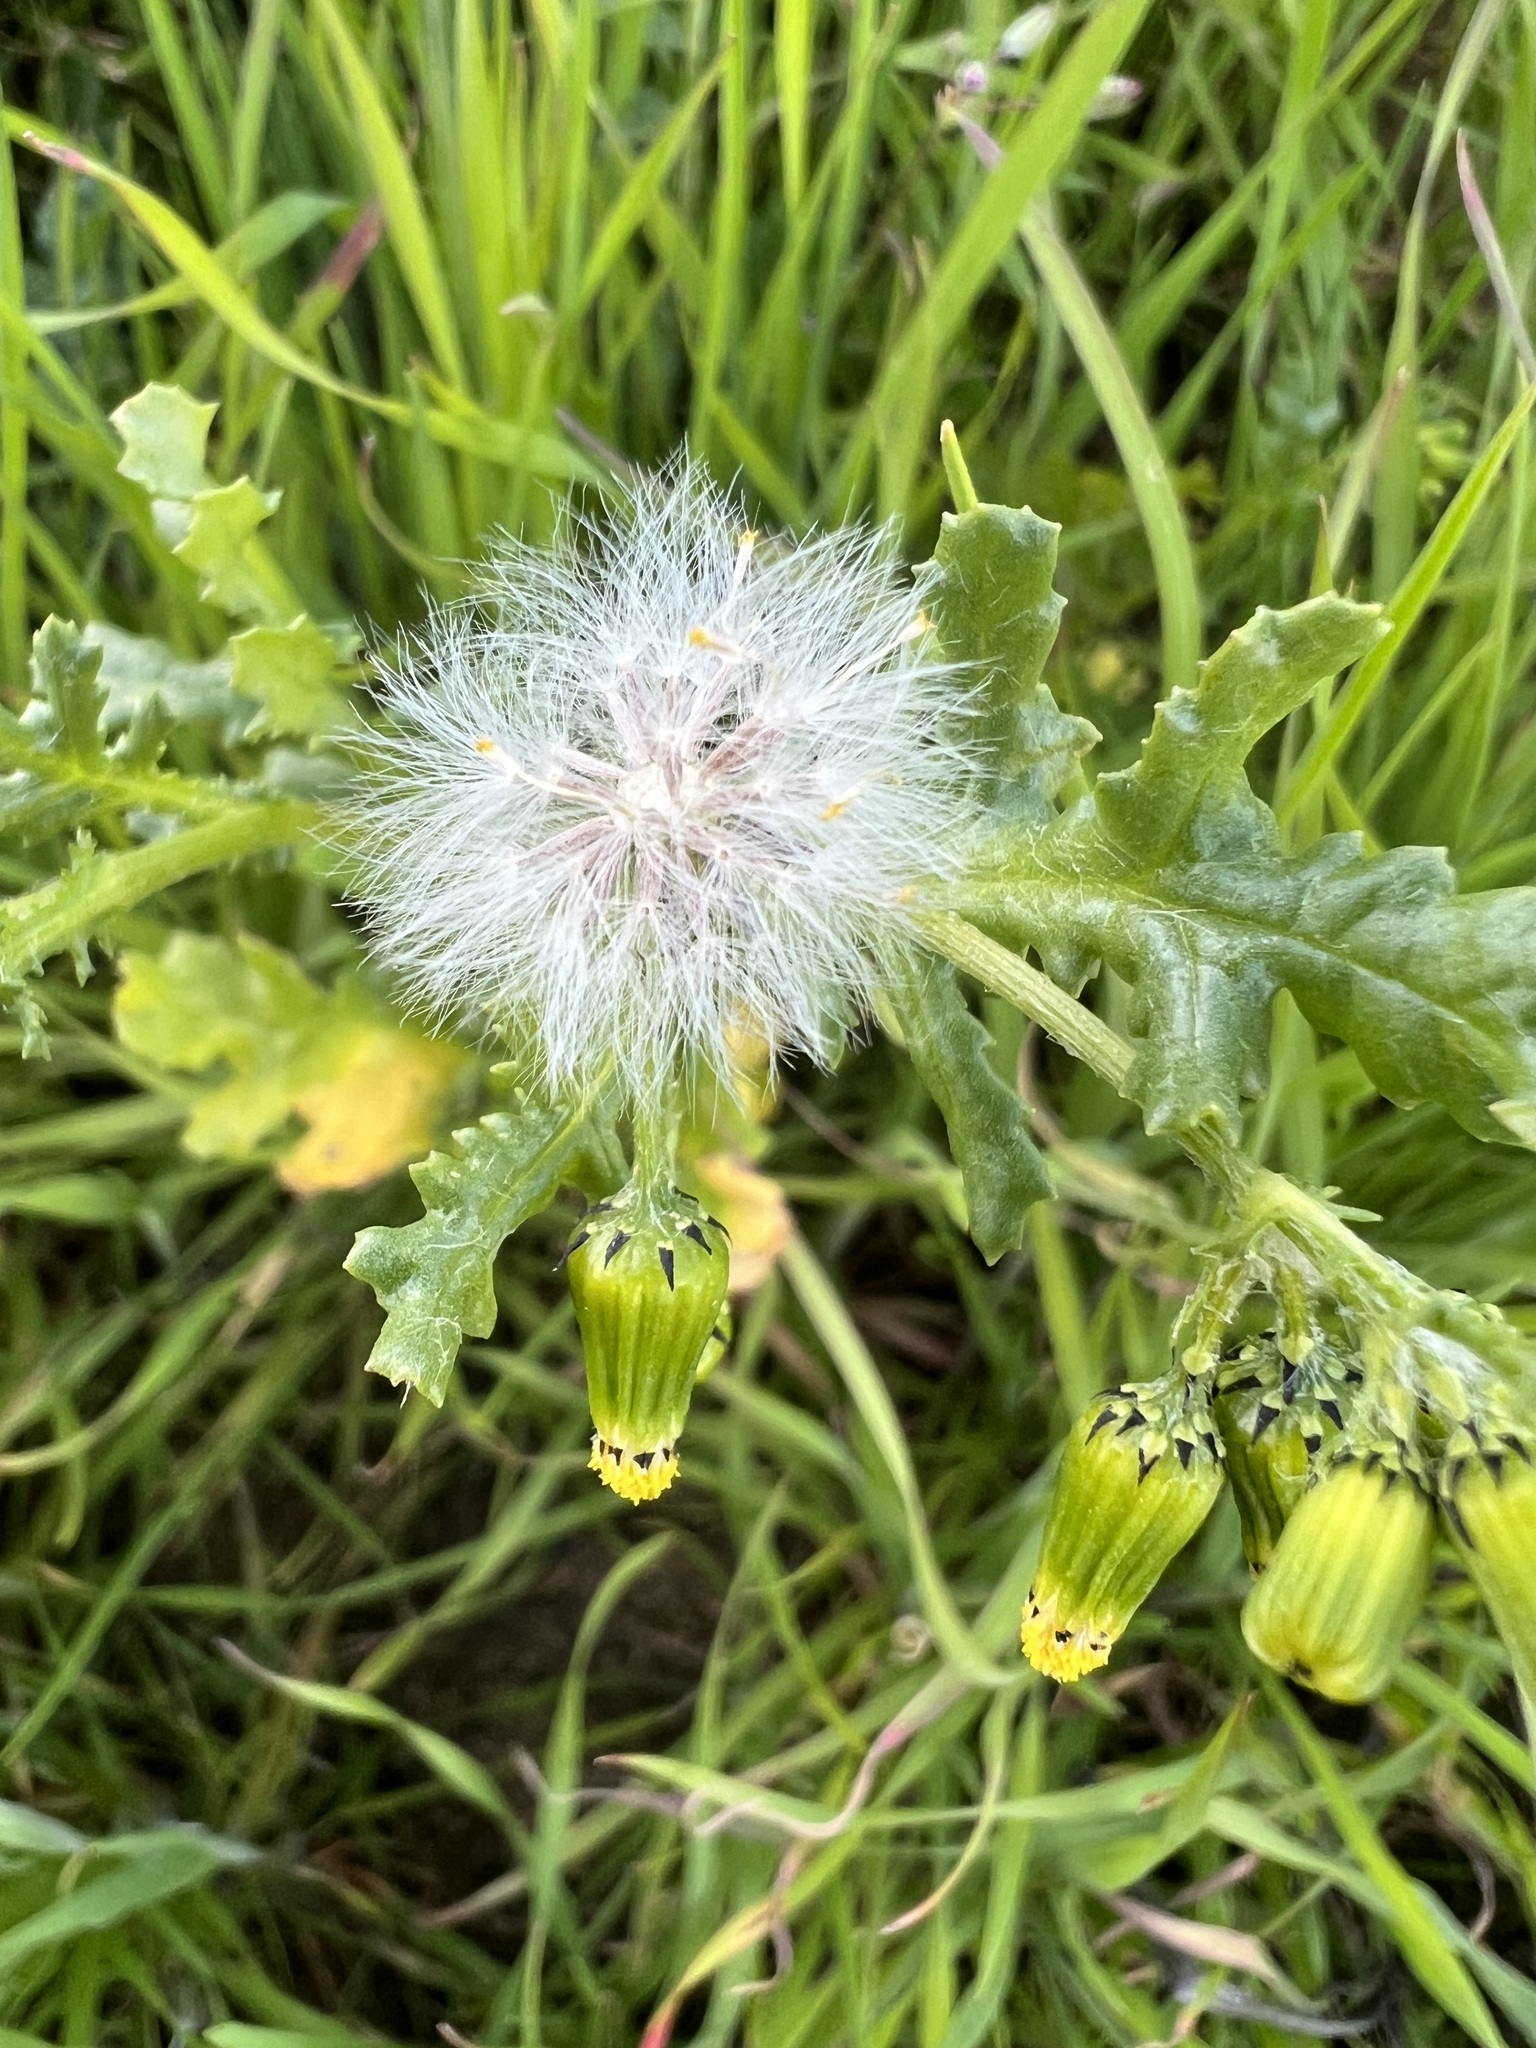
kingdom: Plantae
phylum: Tracheophyta
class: Magnoliopsida
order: Asterales
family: Asteraceae
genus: Senecio
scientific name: Senecio vulgaris
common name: Old-man-in-the-spring
